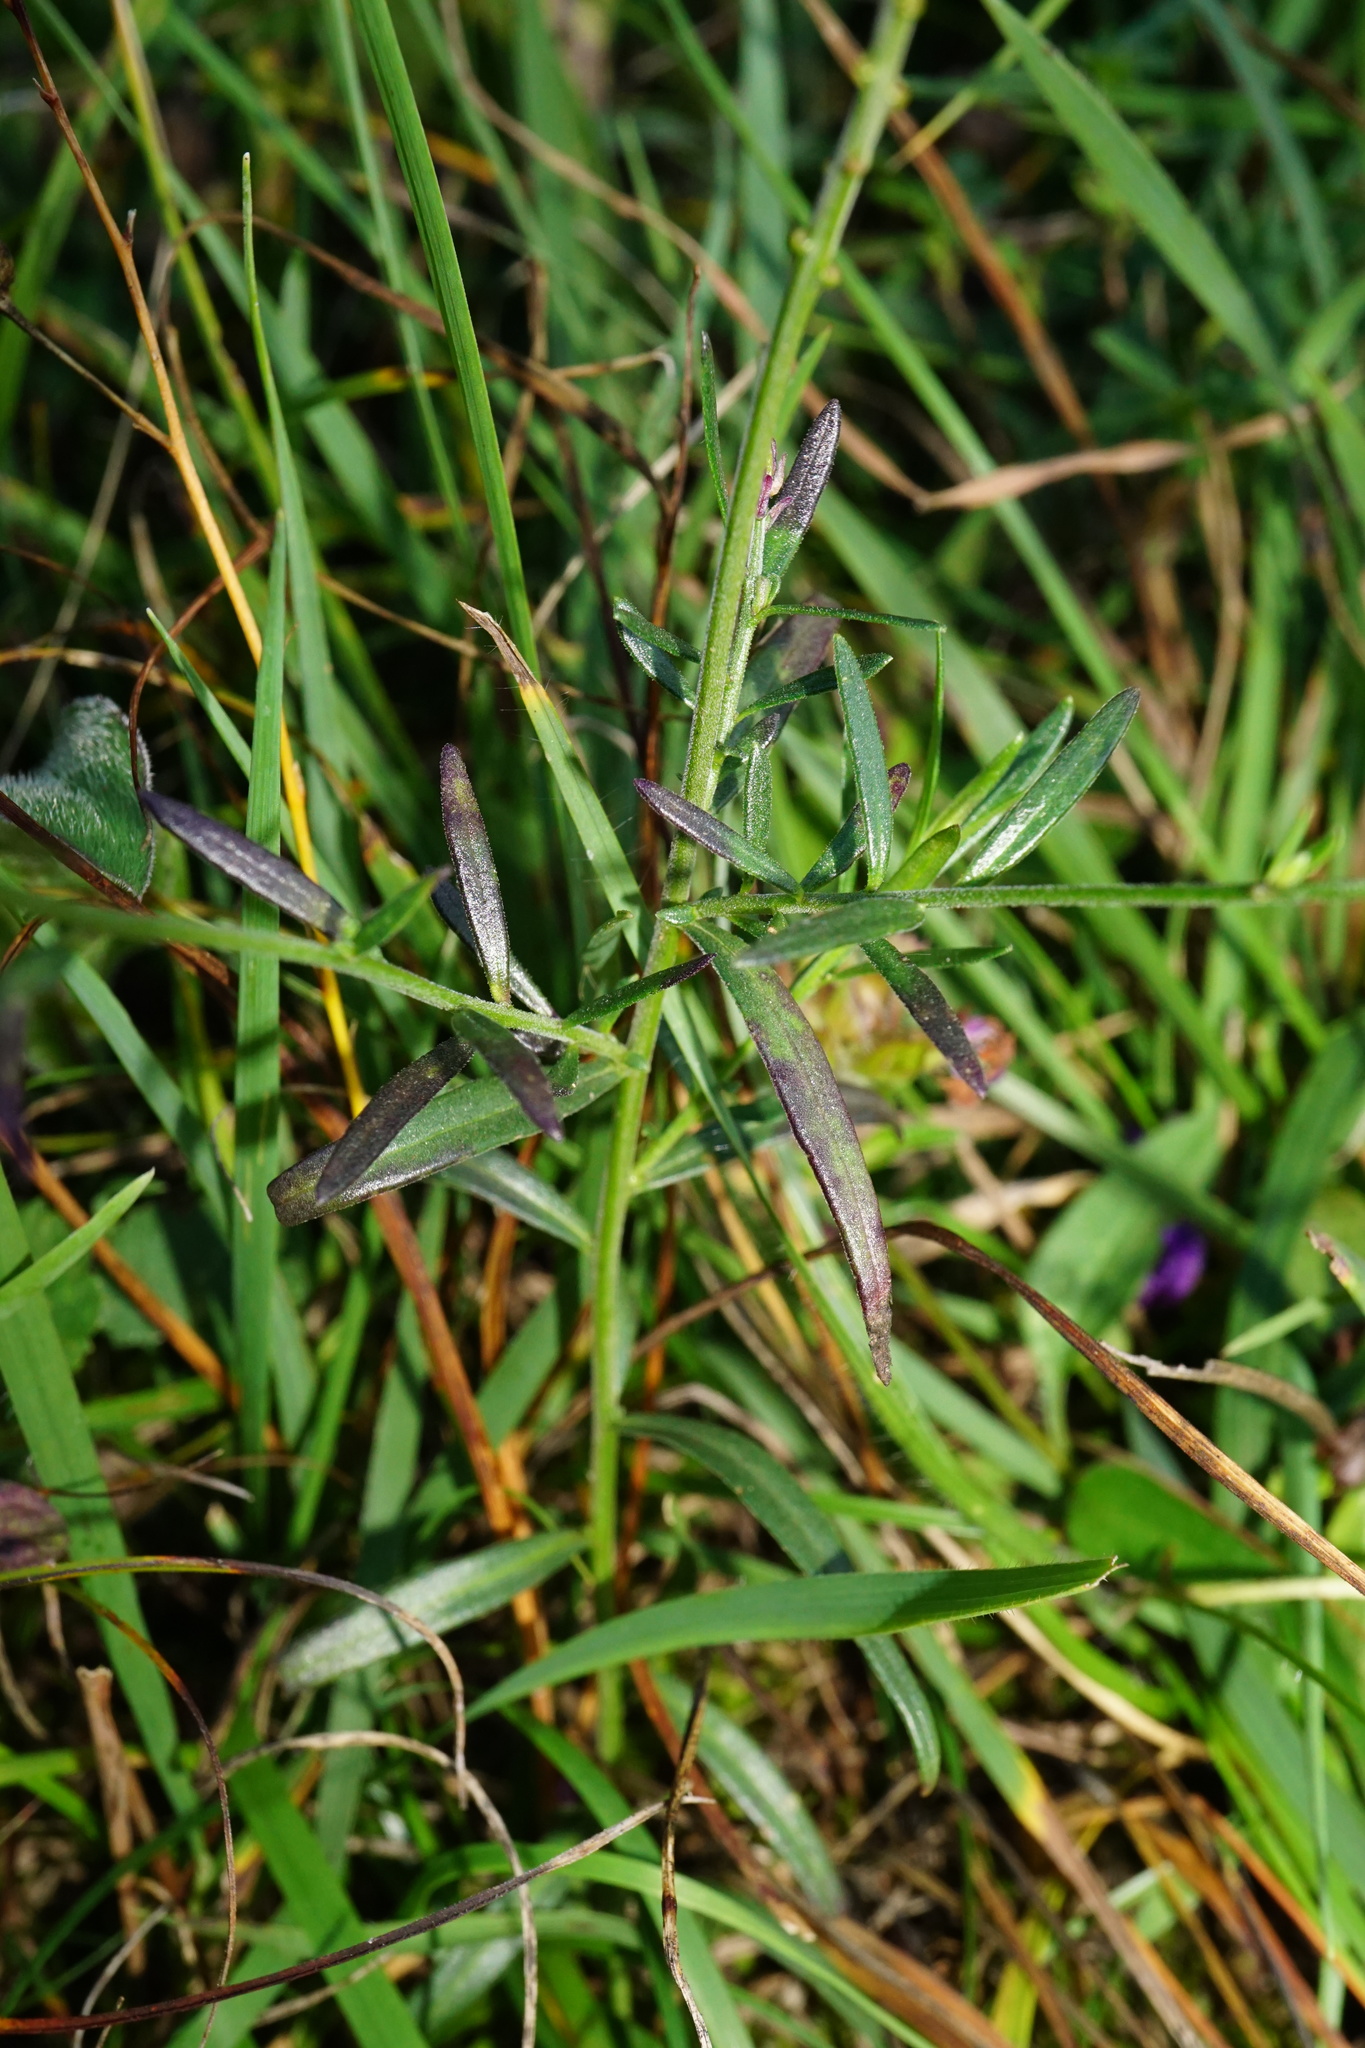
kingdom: Plantae
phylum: Tracheophyta
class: Magnoliopsida
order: Fabales
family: Polygalaceae
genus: Polygala
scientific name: Polygala major
